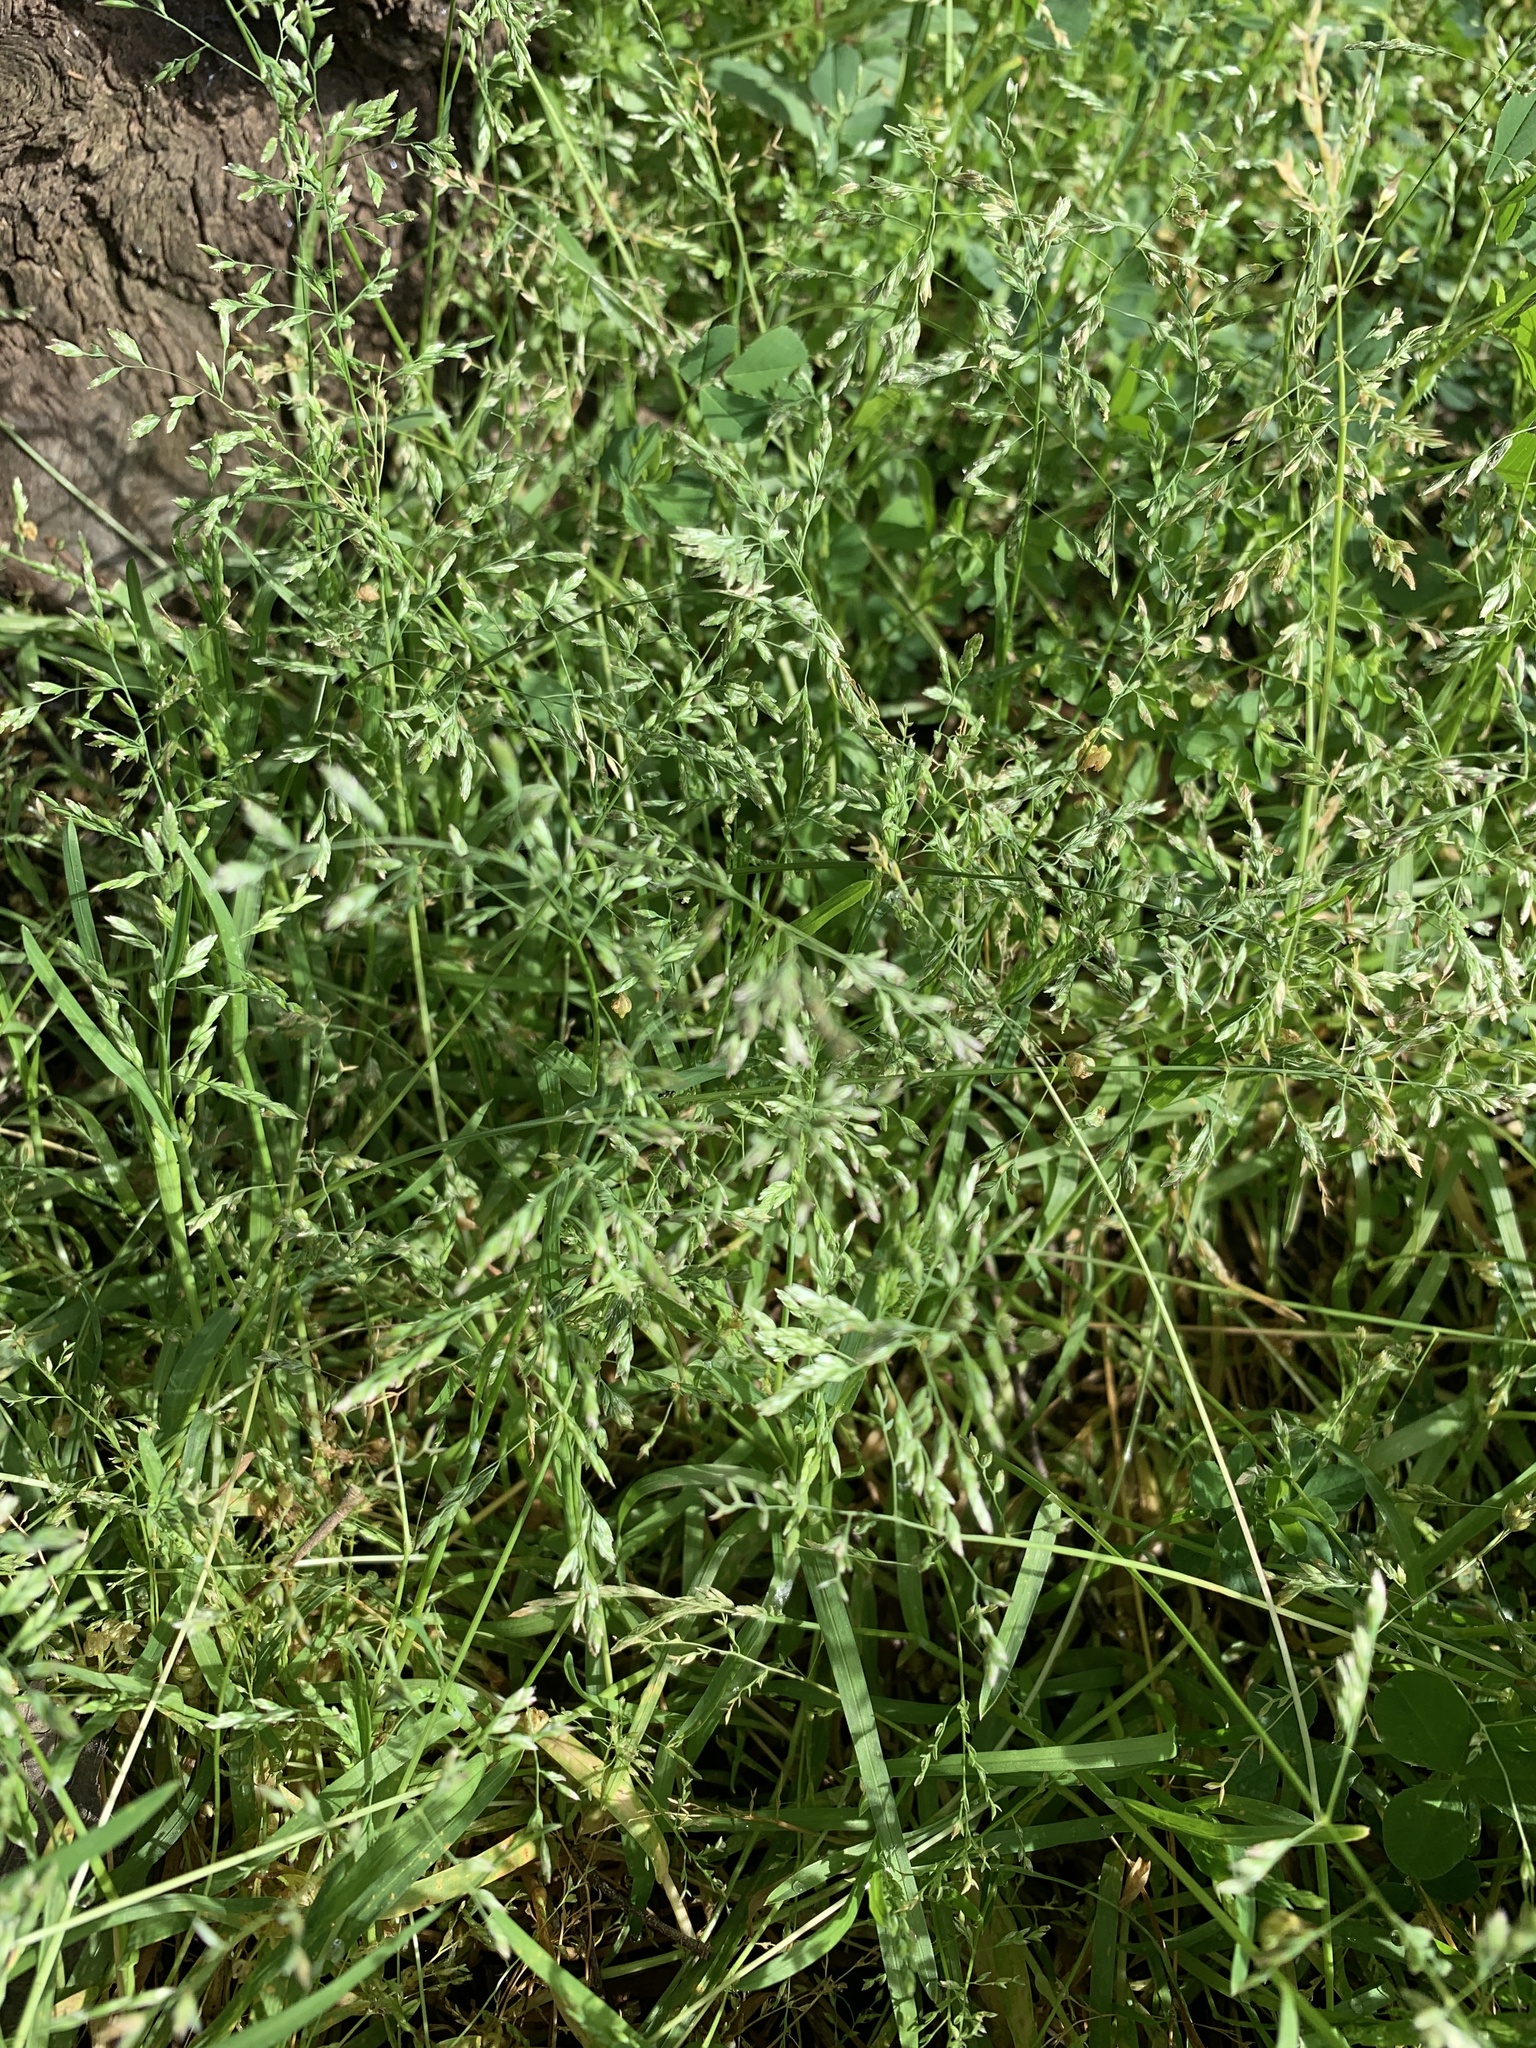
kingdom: Plantae
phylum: Tracheophyta
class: Liliopsida
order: Poales
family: Poaceae
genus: Poa
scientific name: Poa annua
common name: Annual bluegrass
